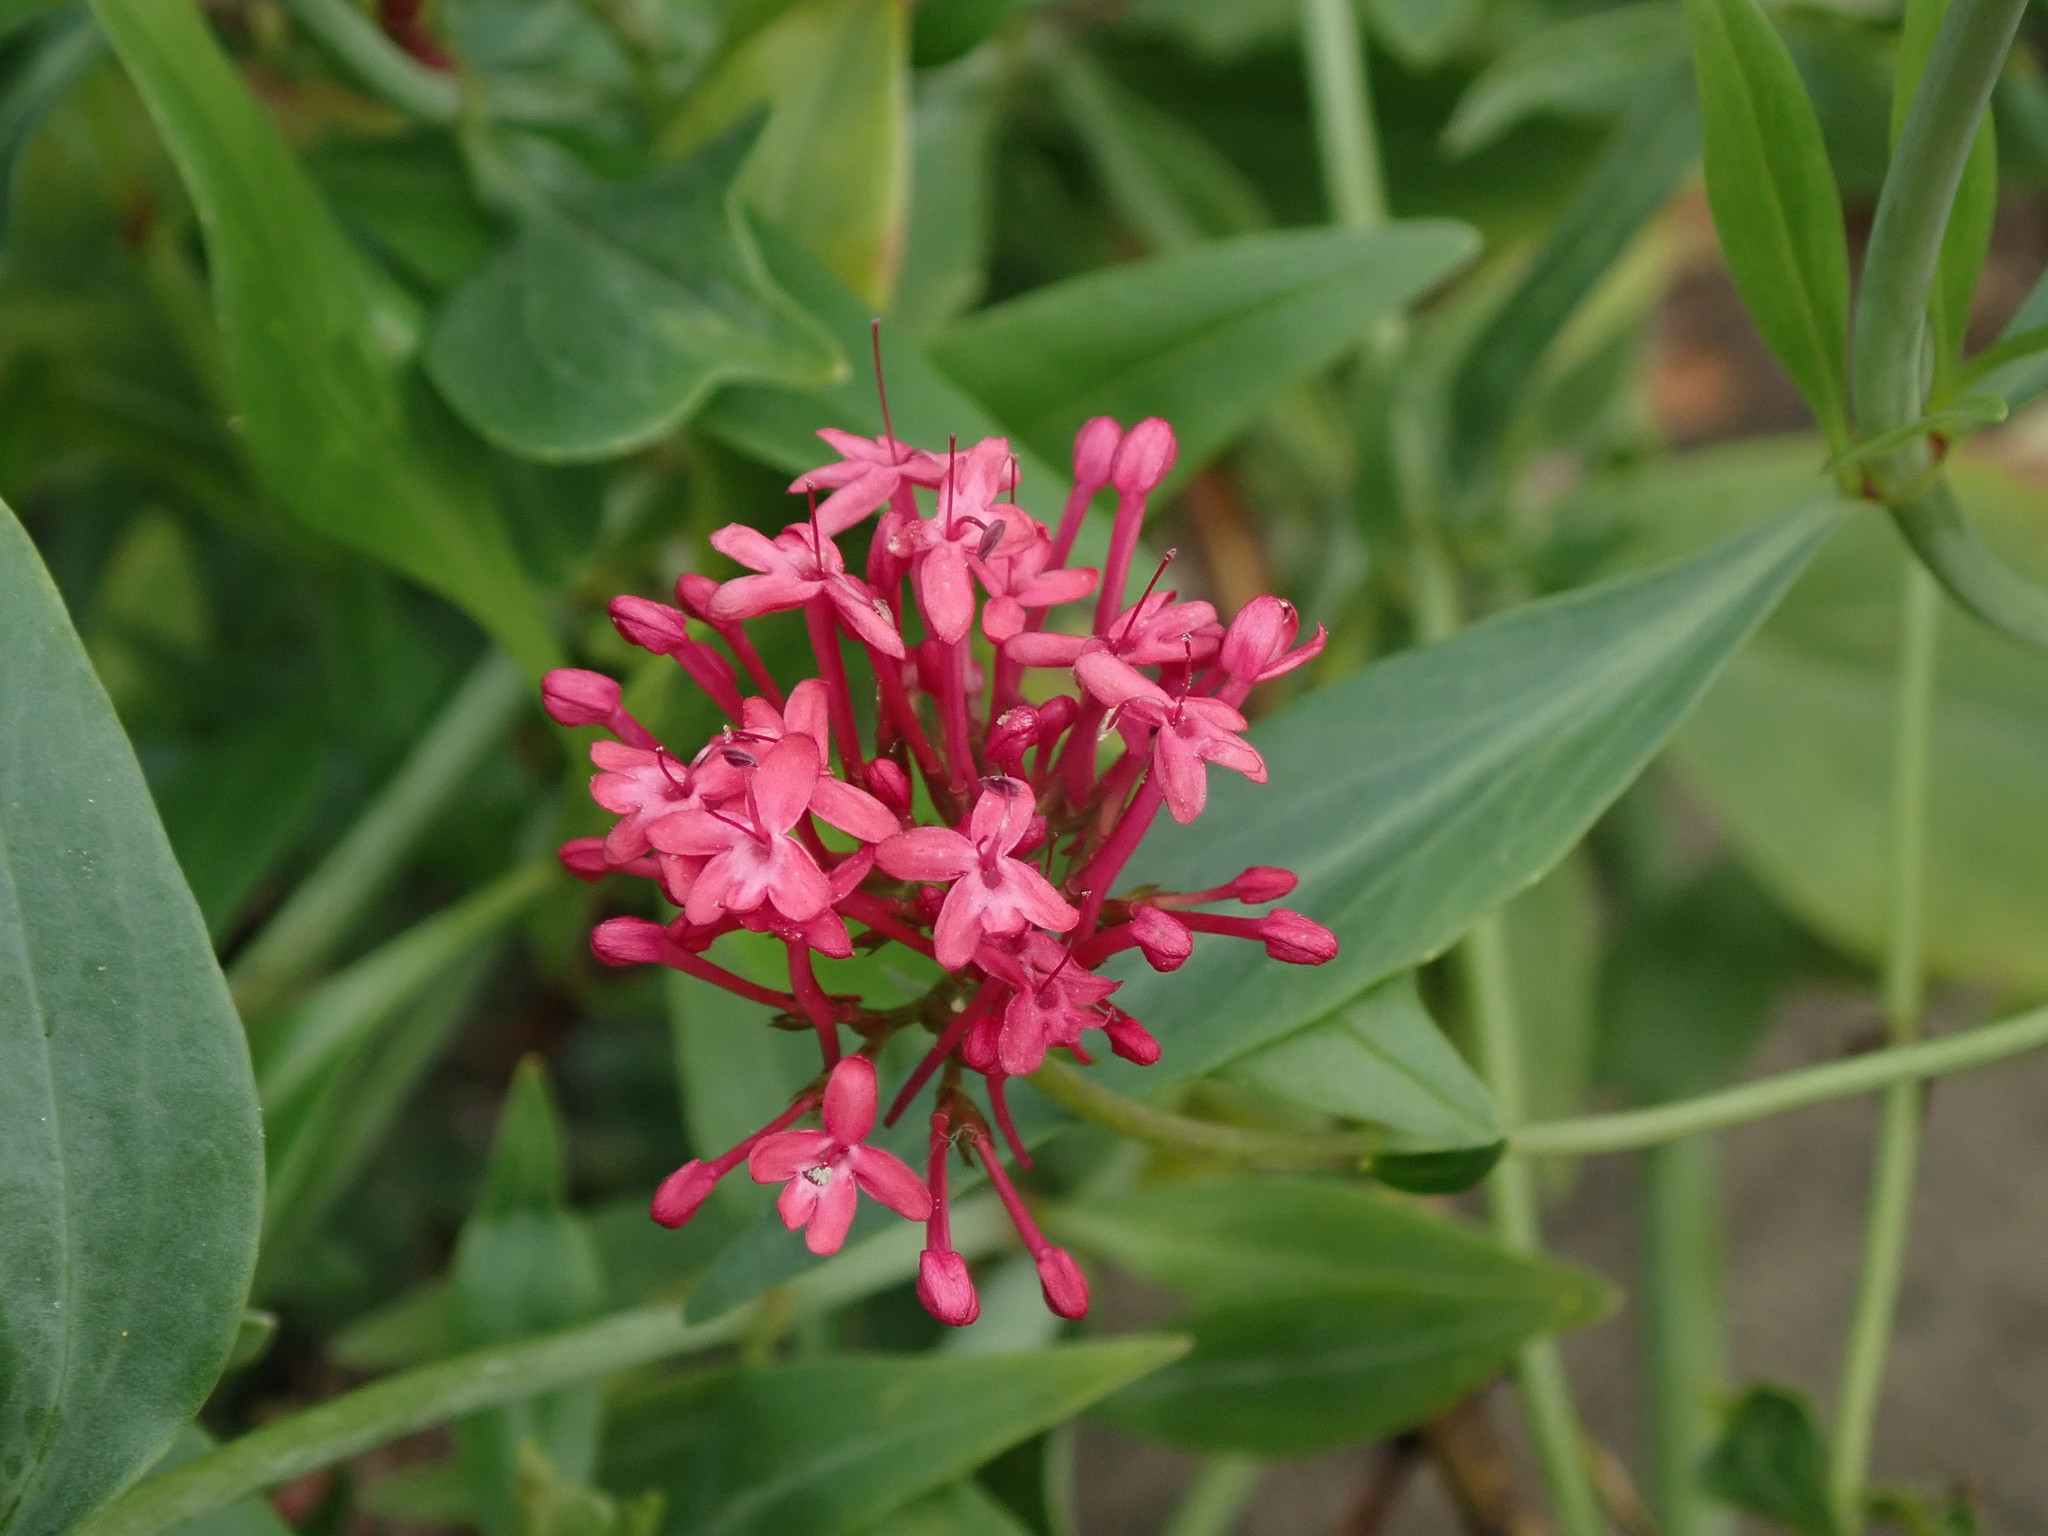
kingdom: Plantae
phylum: Tracheophyta
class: Magnoliopsida
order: Dipsacales
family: Caprifoliaceae
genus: Centranthus
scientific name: Centranthus ruber
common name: Red valerian
